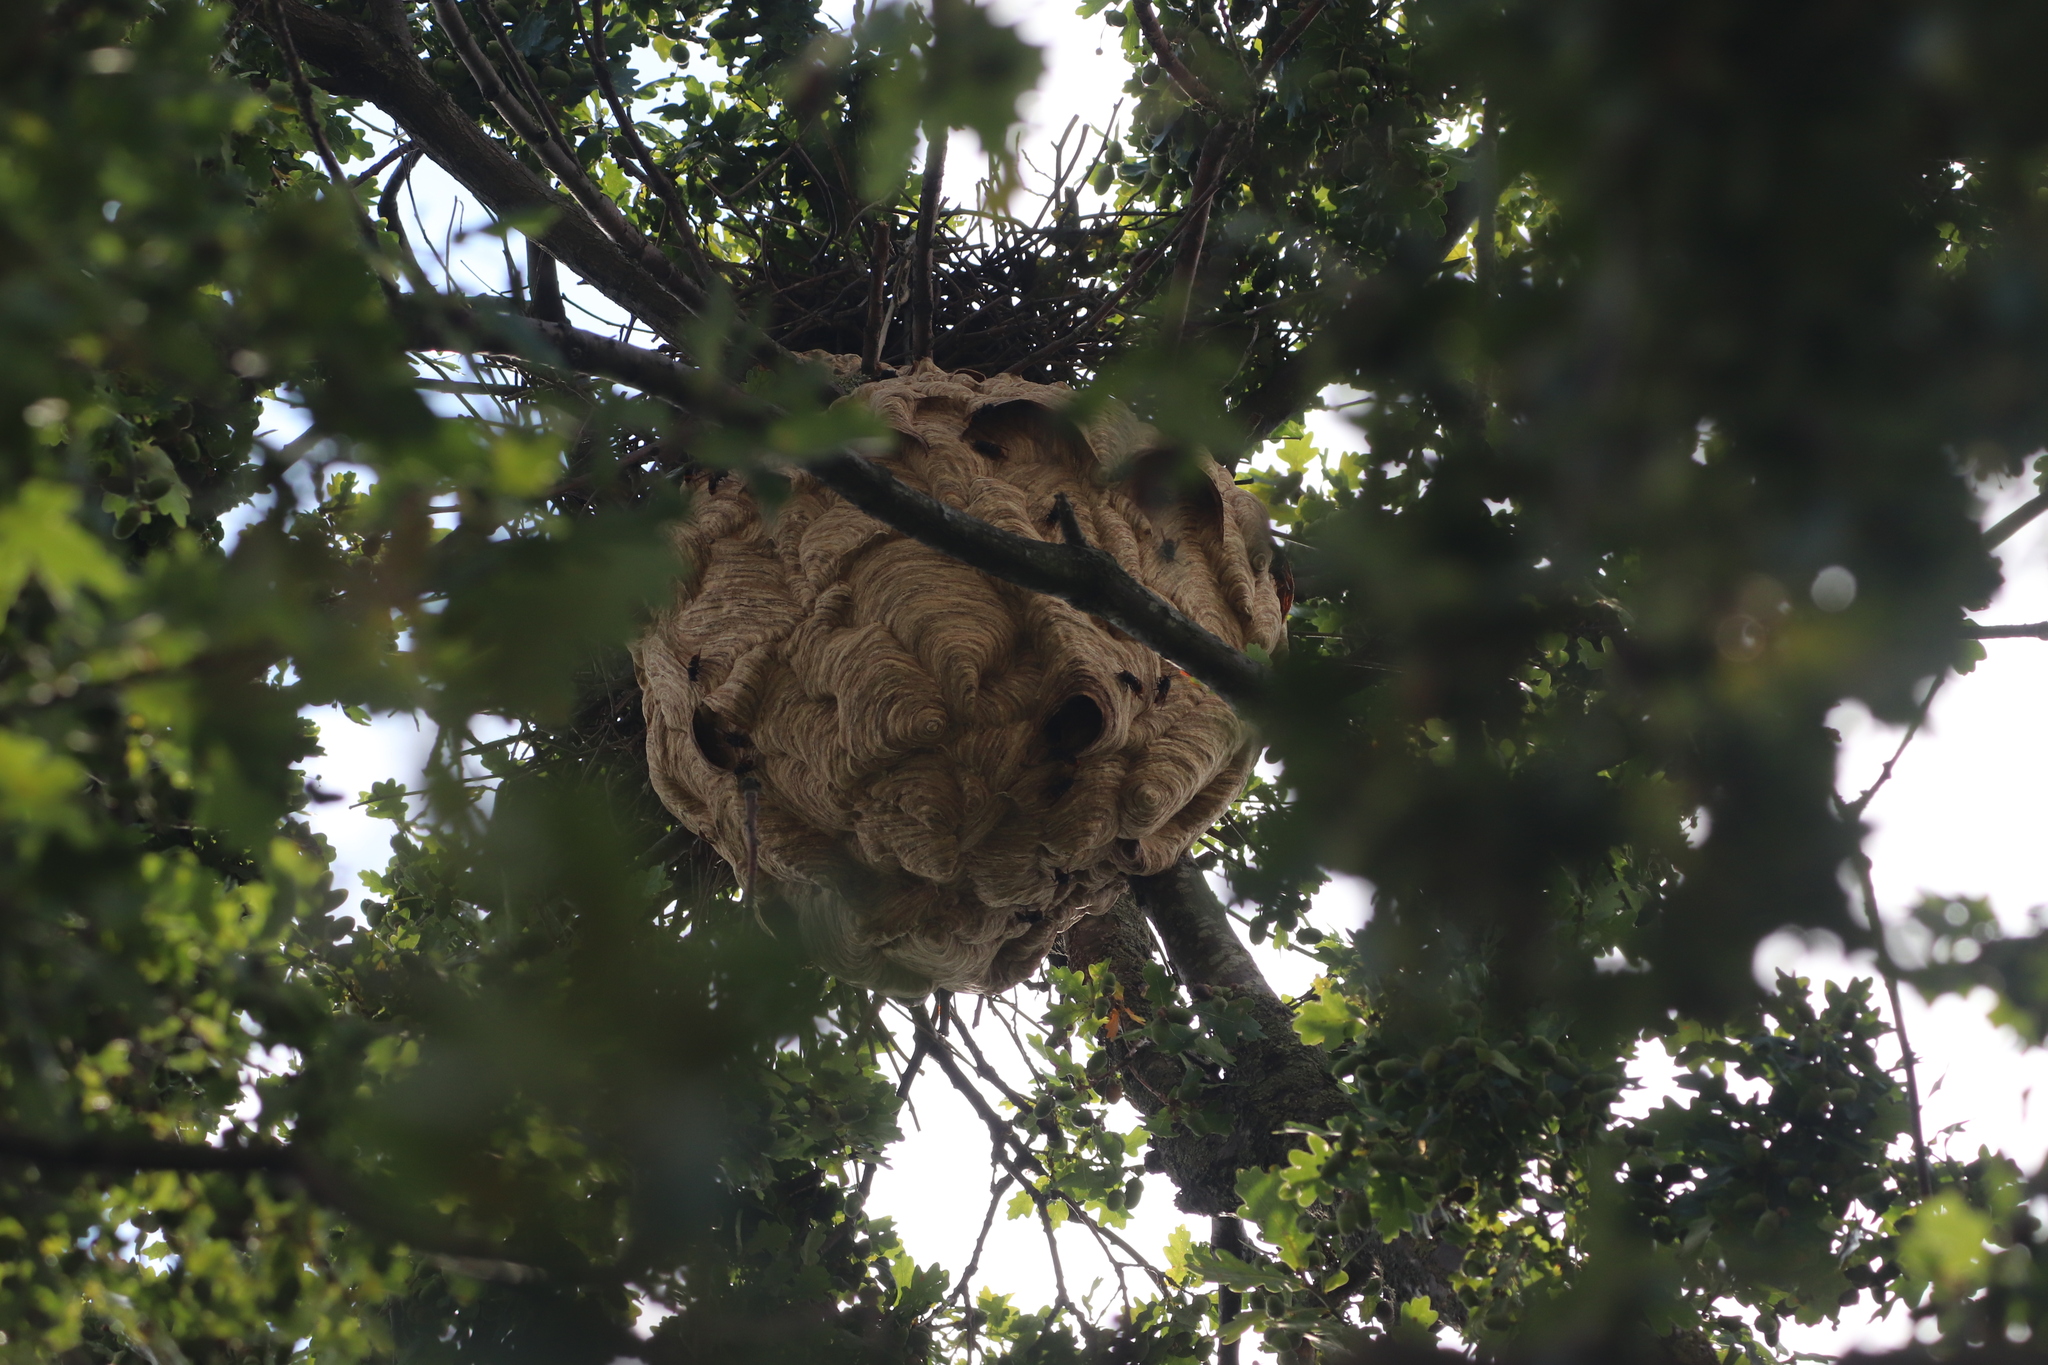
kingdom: Animalia
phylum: Arthropoda
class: Insecta
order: Hymenoptera
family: Vespidae
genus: Vespa
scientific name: Vespa velutina
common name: Asian hornet
